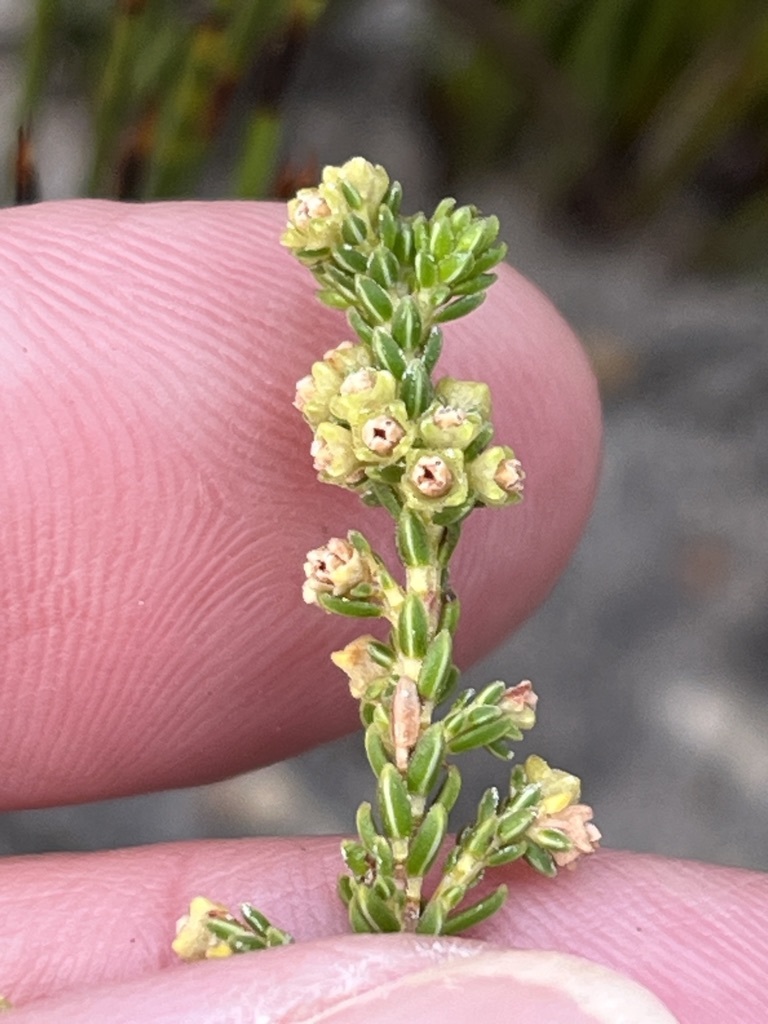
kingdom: Plantae
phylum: Tracheophyta
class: Magnoliopsida
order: Ericales
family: Ericaceae
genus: Erica
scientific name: Erica serrata
